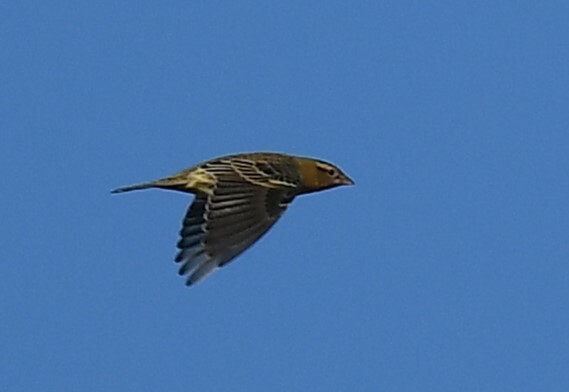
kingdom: Animalia
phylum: Chordata
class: Aves
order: Passeriformes
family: Icteridae
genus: Dolichonyx
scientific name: Dolichonyx oryzivorus
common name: Bobolink
